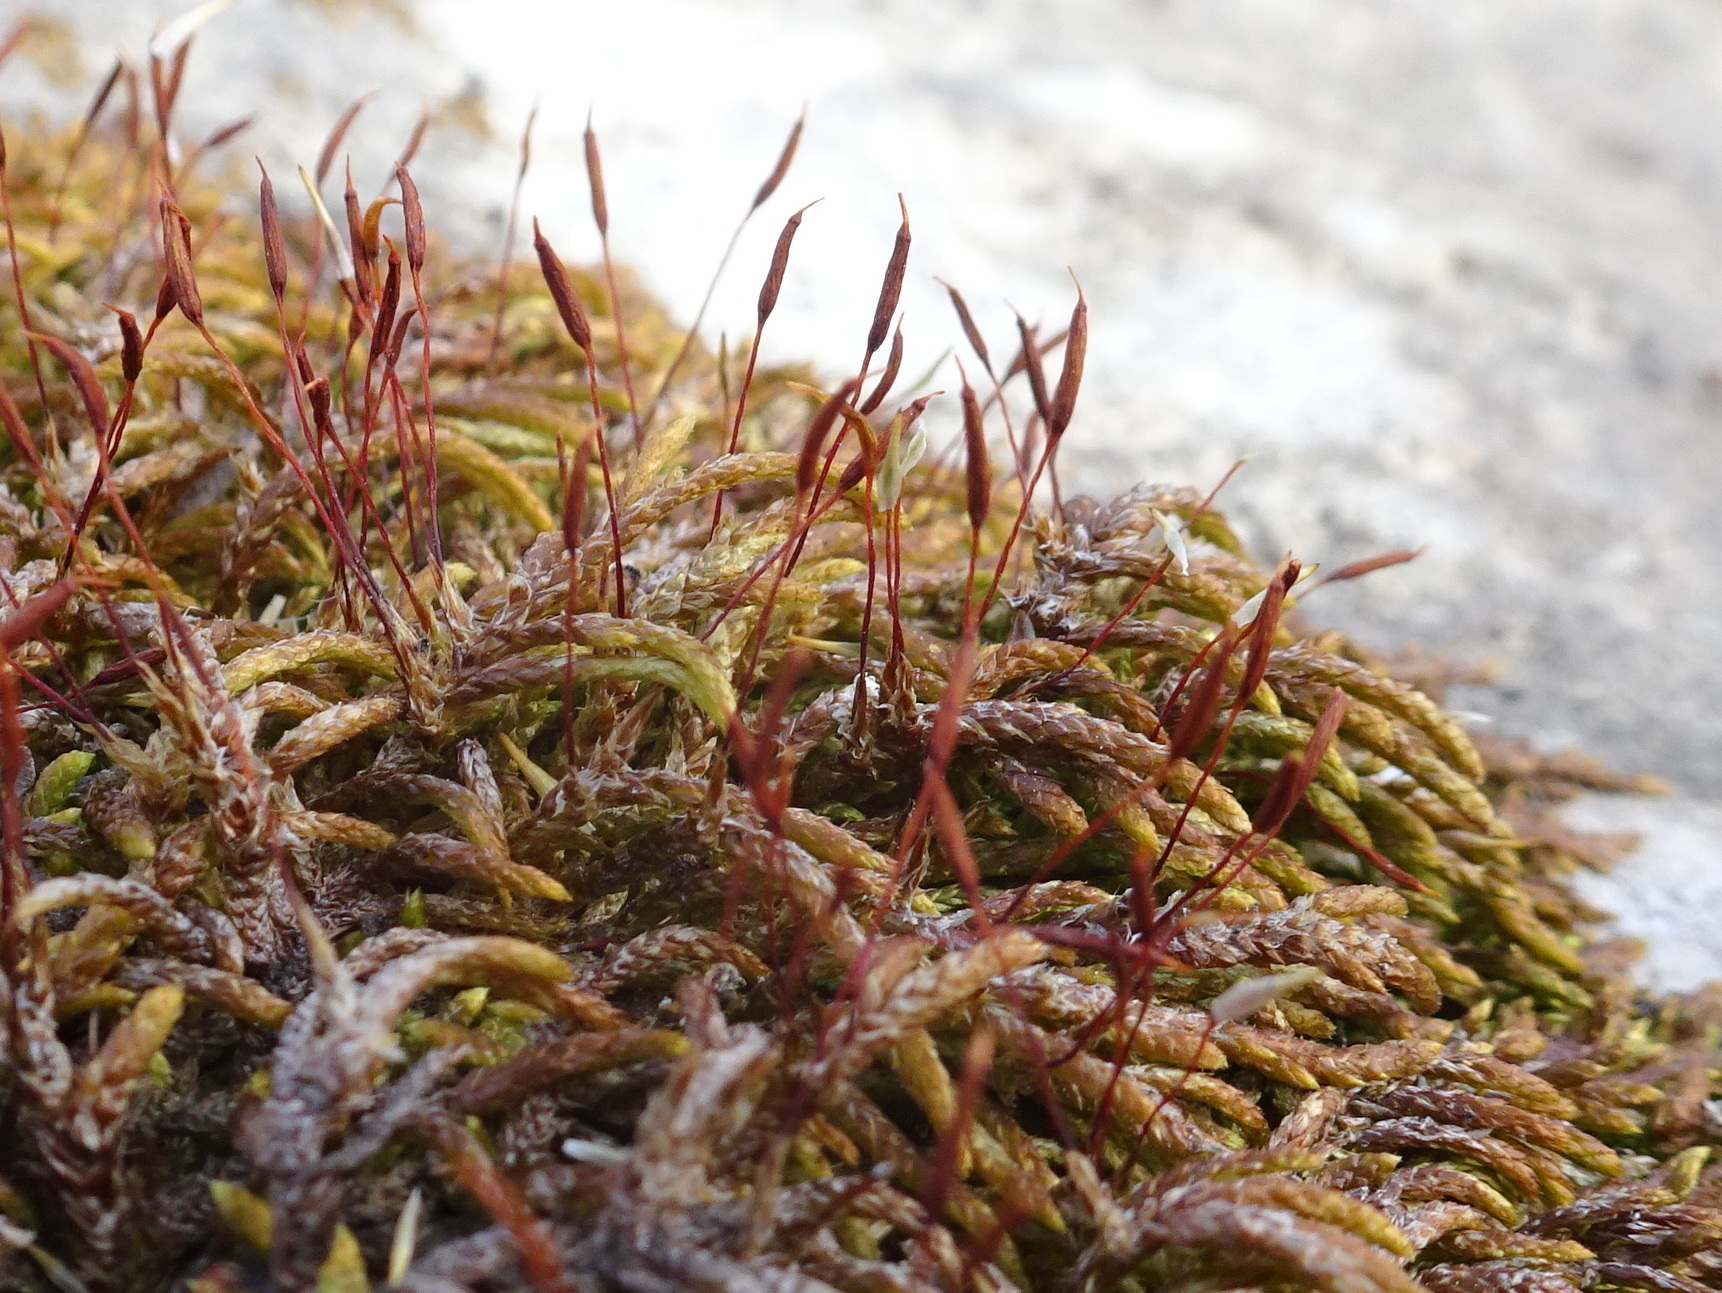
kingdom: Plantae
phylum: Bryophyta
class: Bryopsida
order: Hypnales
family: Entodontaceae
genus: Entodon
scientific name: Entodon seductrix
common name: Round-stemmed entodon moss
